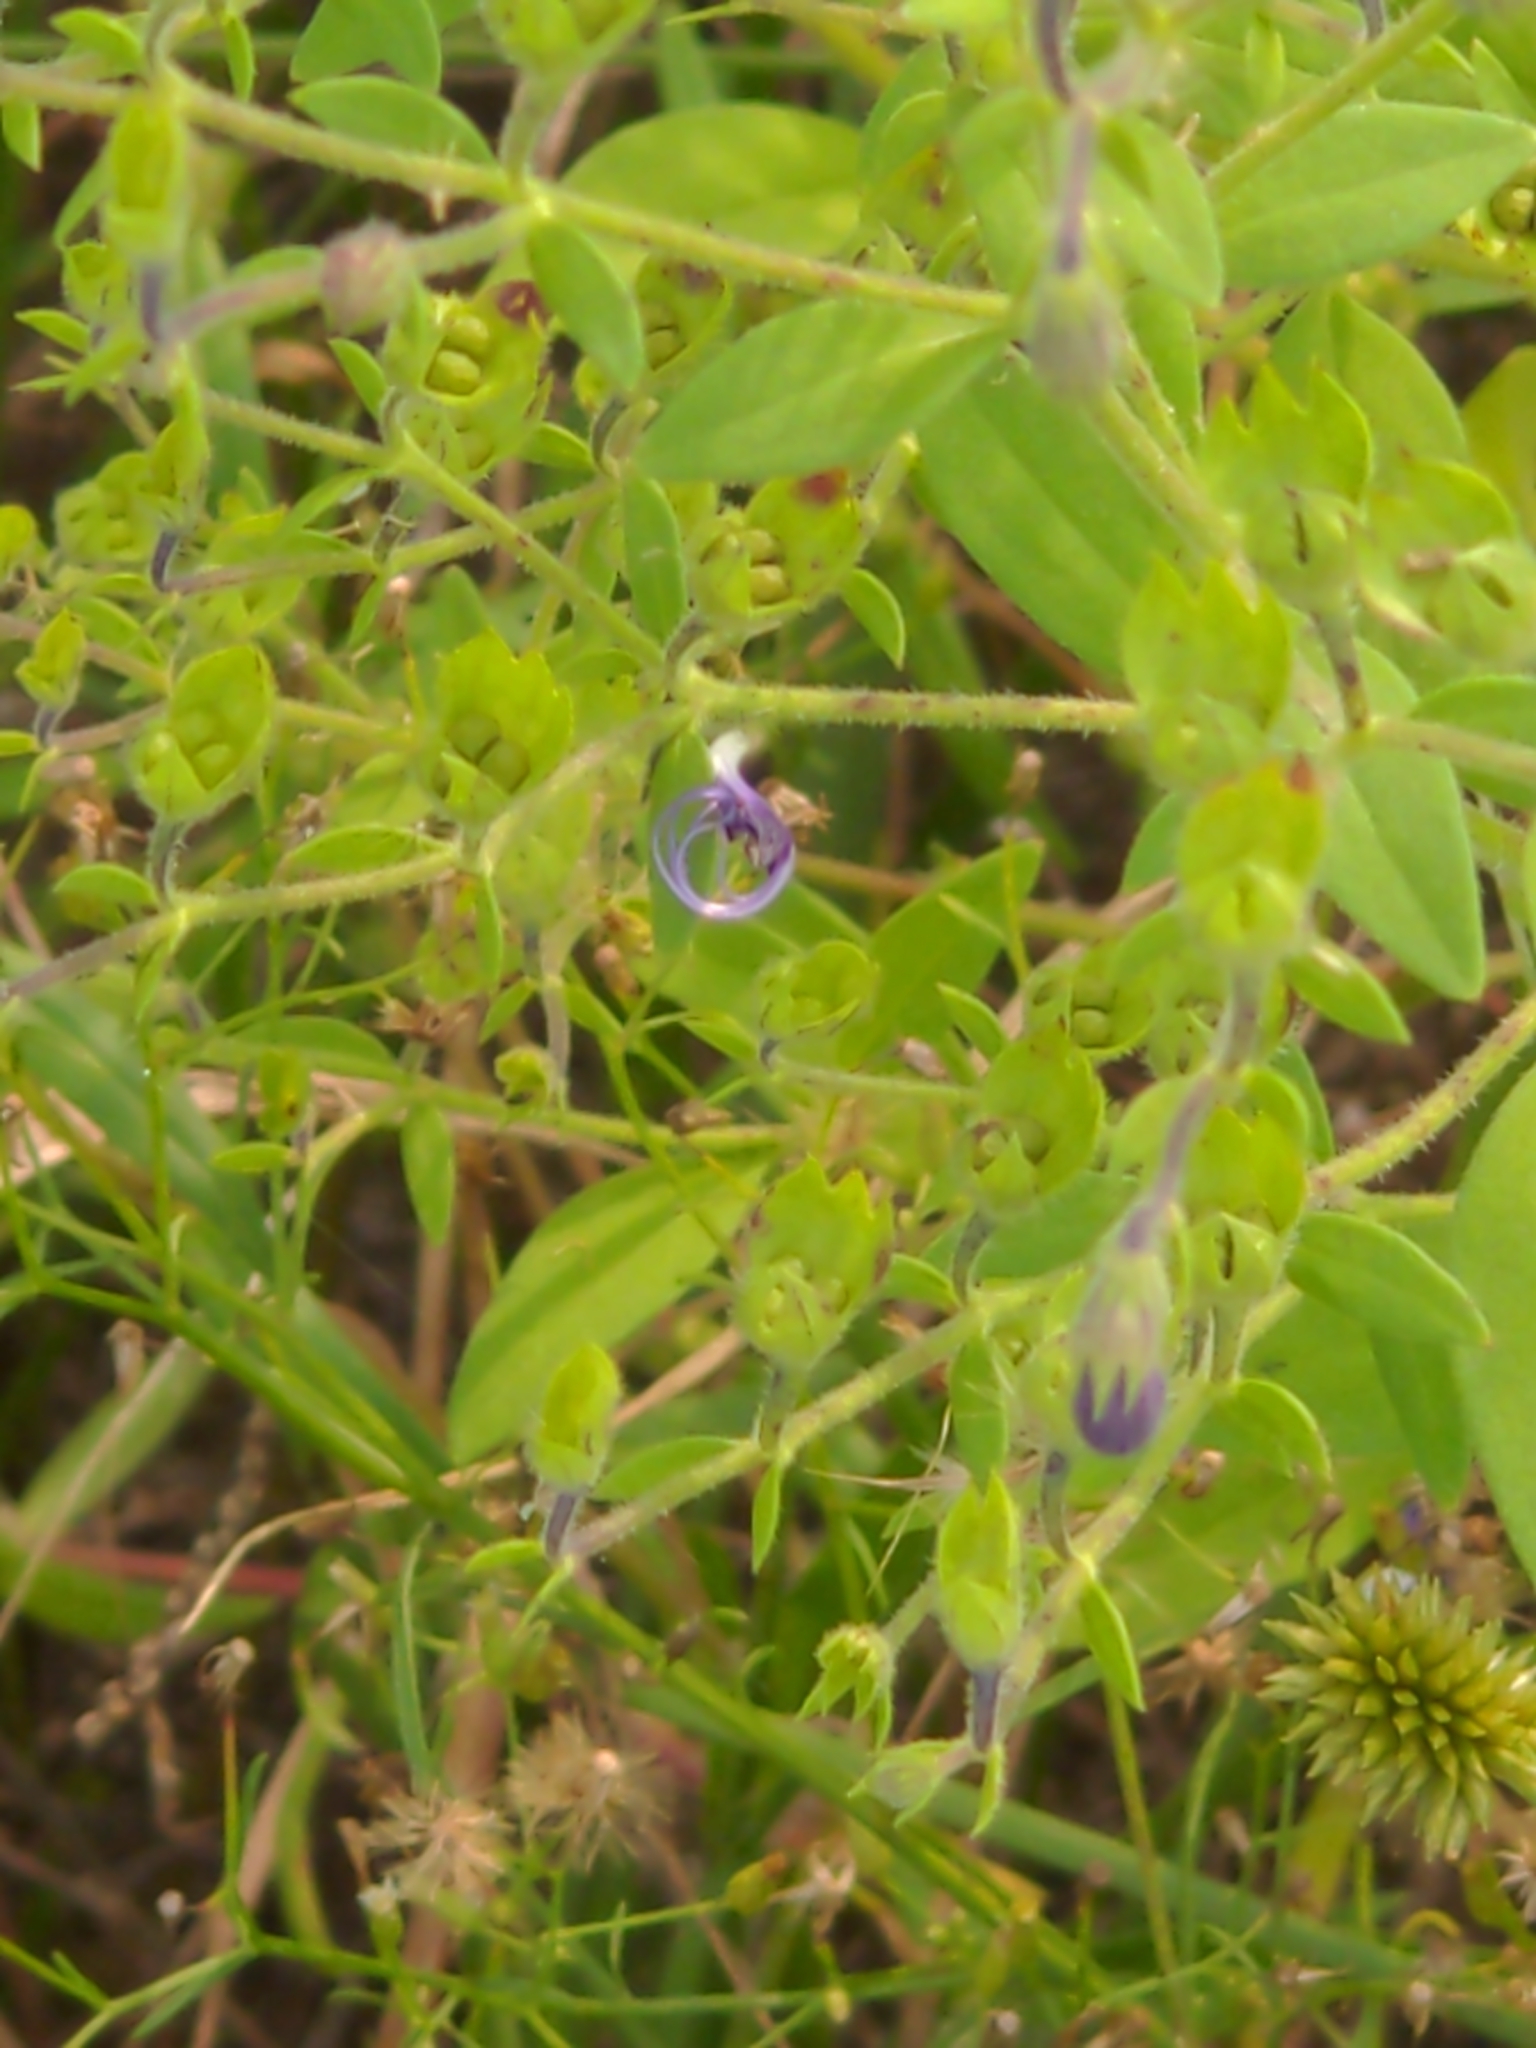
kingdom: Plantae
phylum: Tracheophyta
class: Magnoliopsida
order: Lamiales
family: Lamiaceae
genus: Trichostema
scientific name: Trichostema dichotomum
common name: Bastard pennyroyal
